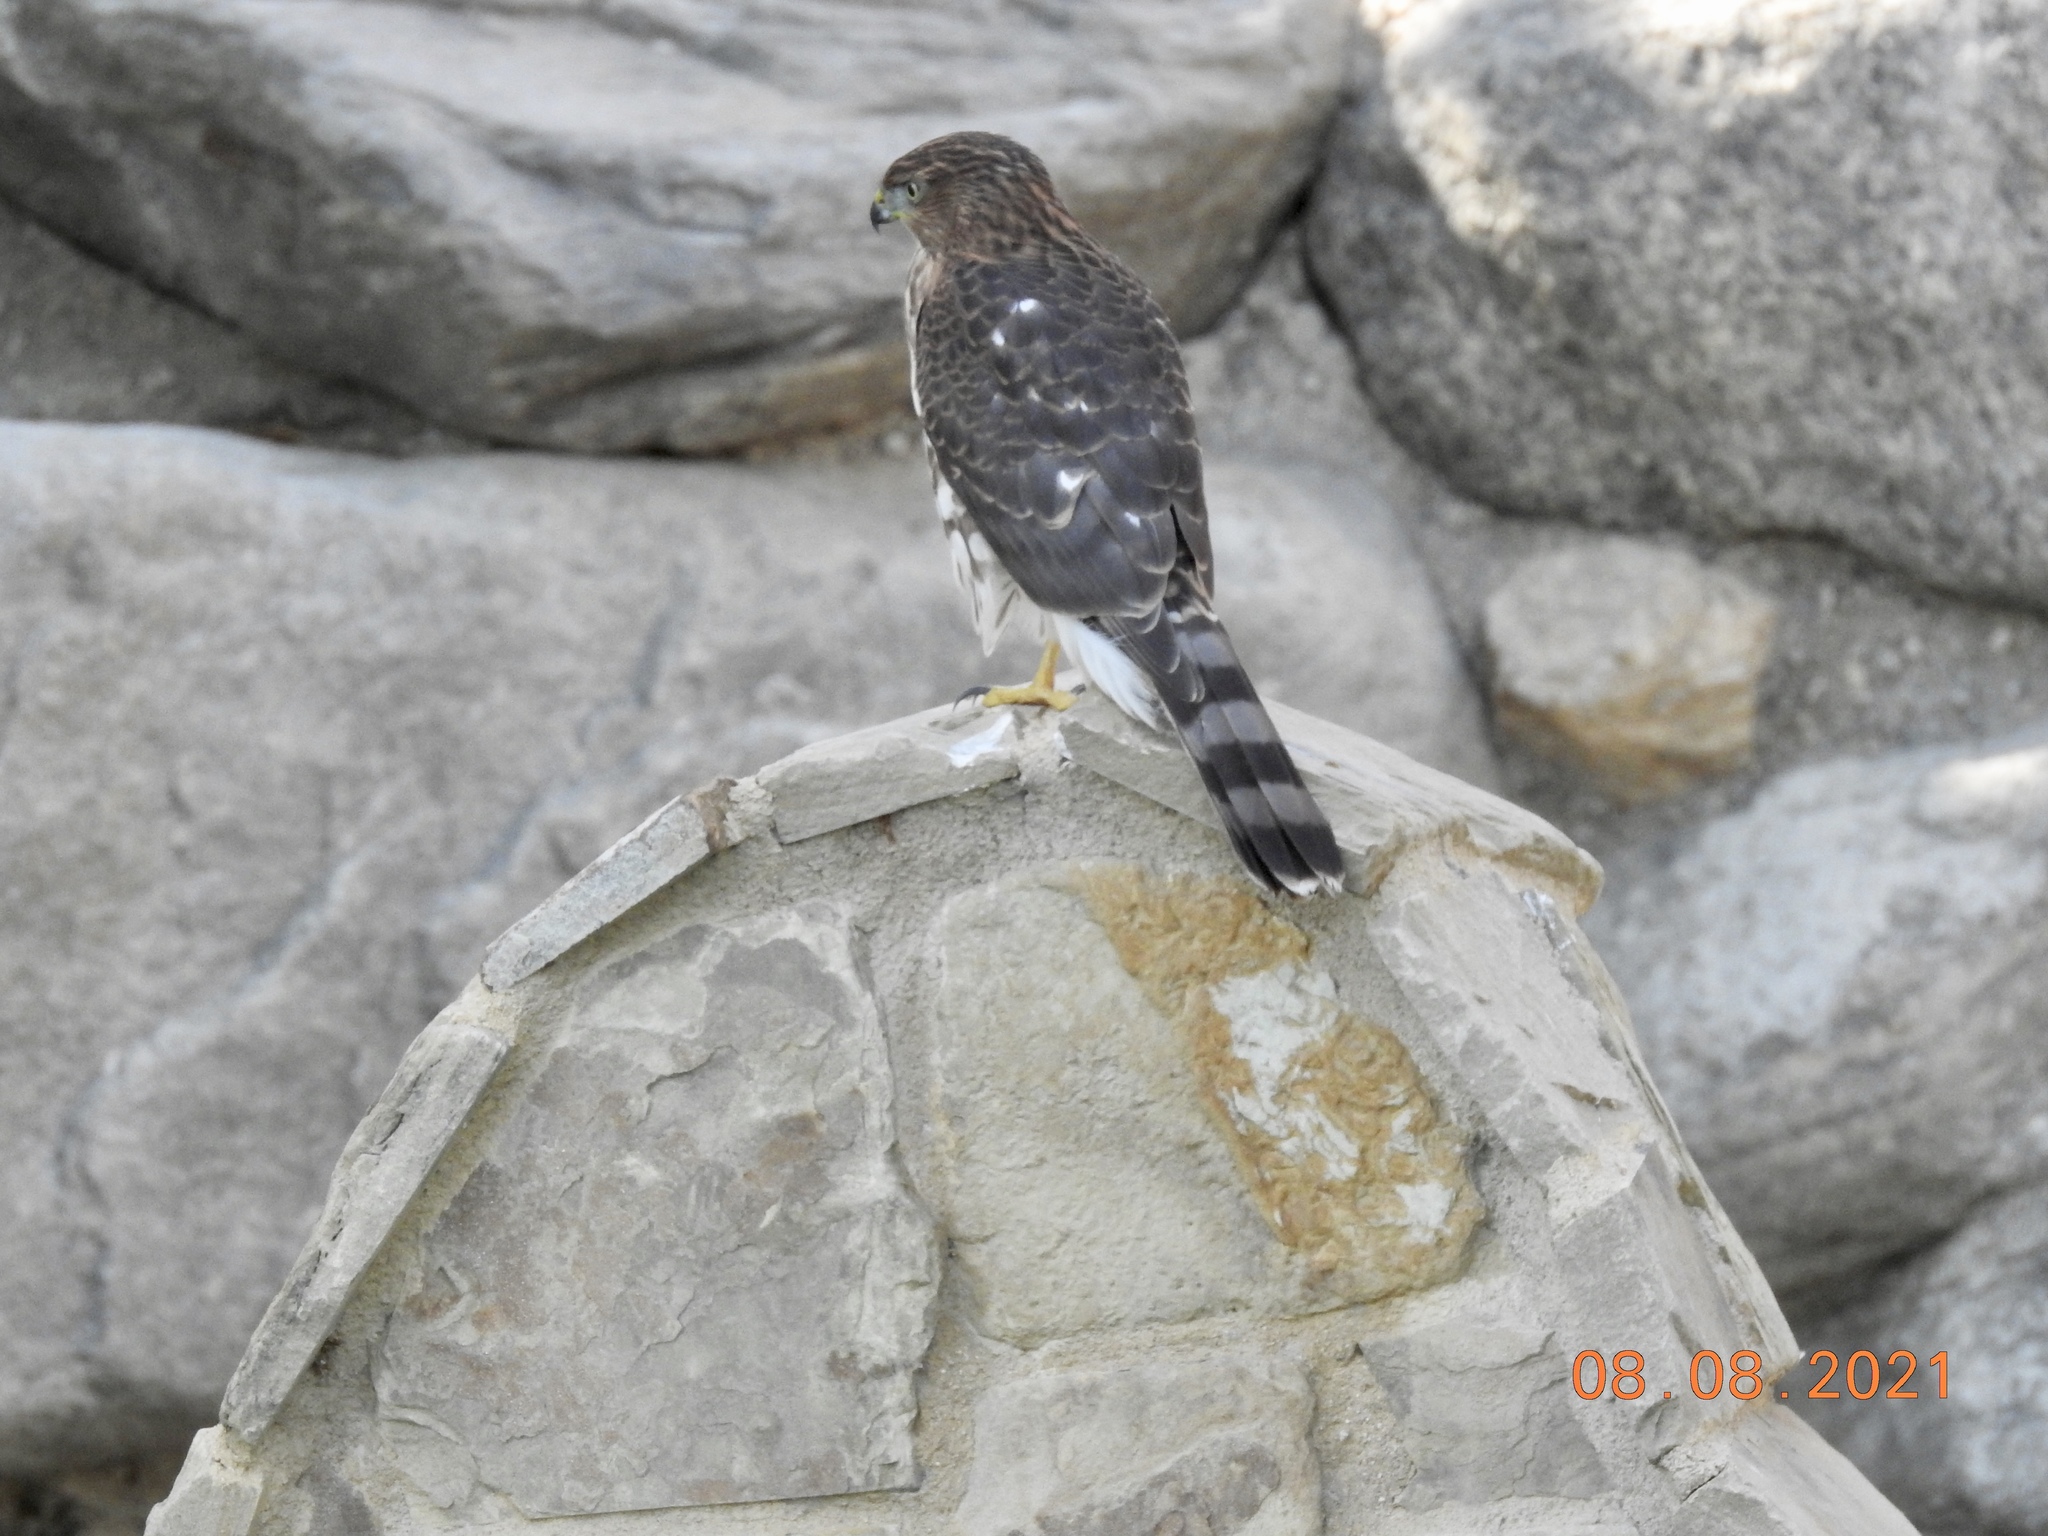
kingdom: Animalia
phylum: Chordata
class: Aves
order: Accipitriformes
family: Accipitridae
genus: Accipiter
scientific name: Accipiter cooperii
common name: Cooper's hawk
